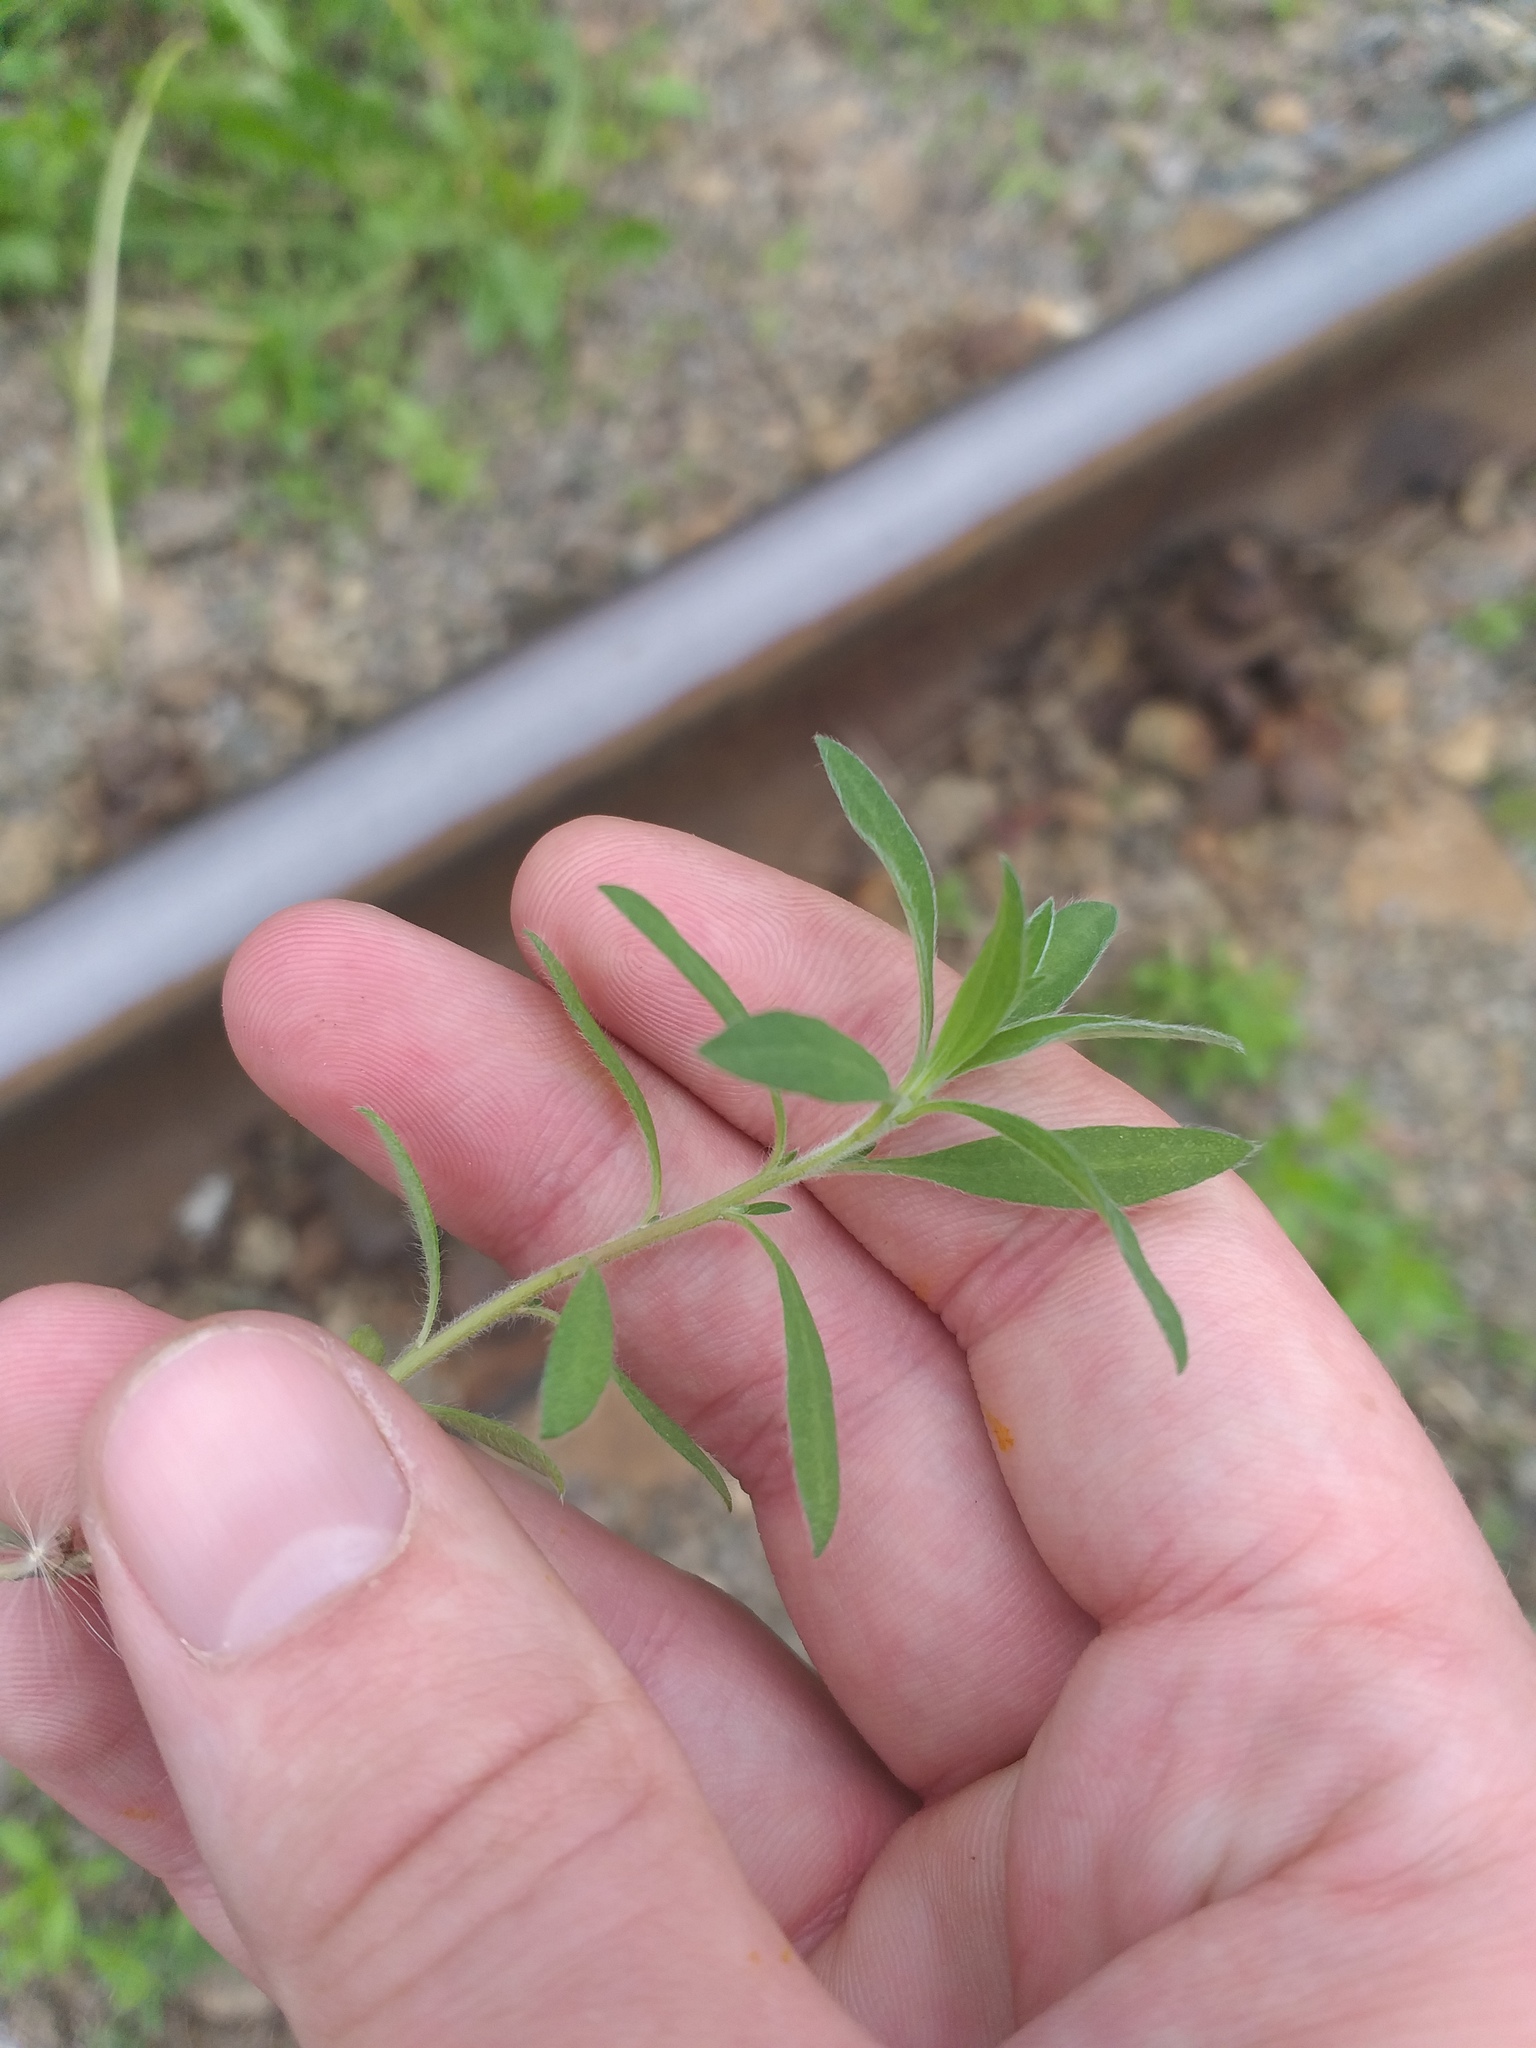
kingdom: Plantae
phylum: Tracheophyta
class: Magnoliopsida
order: Caryophyllales
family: Amaranthaceae
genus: Bassia
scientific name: Bassia scoparia
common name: Belvedere
